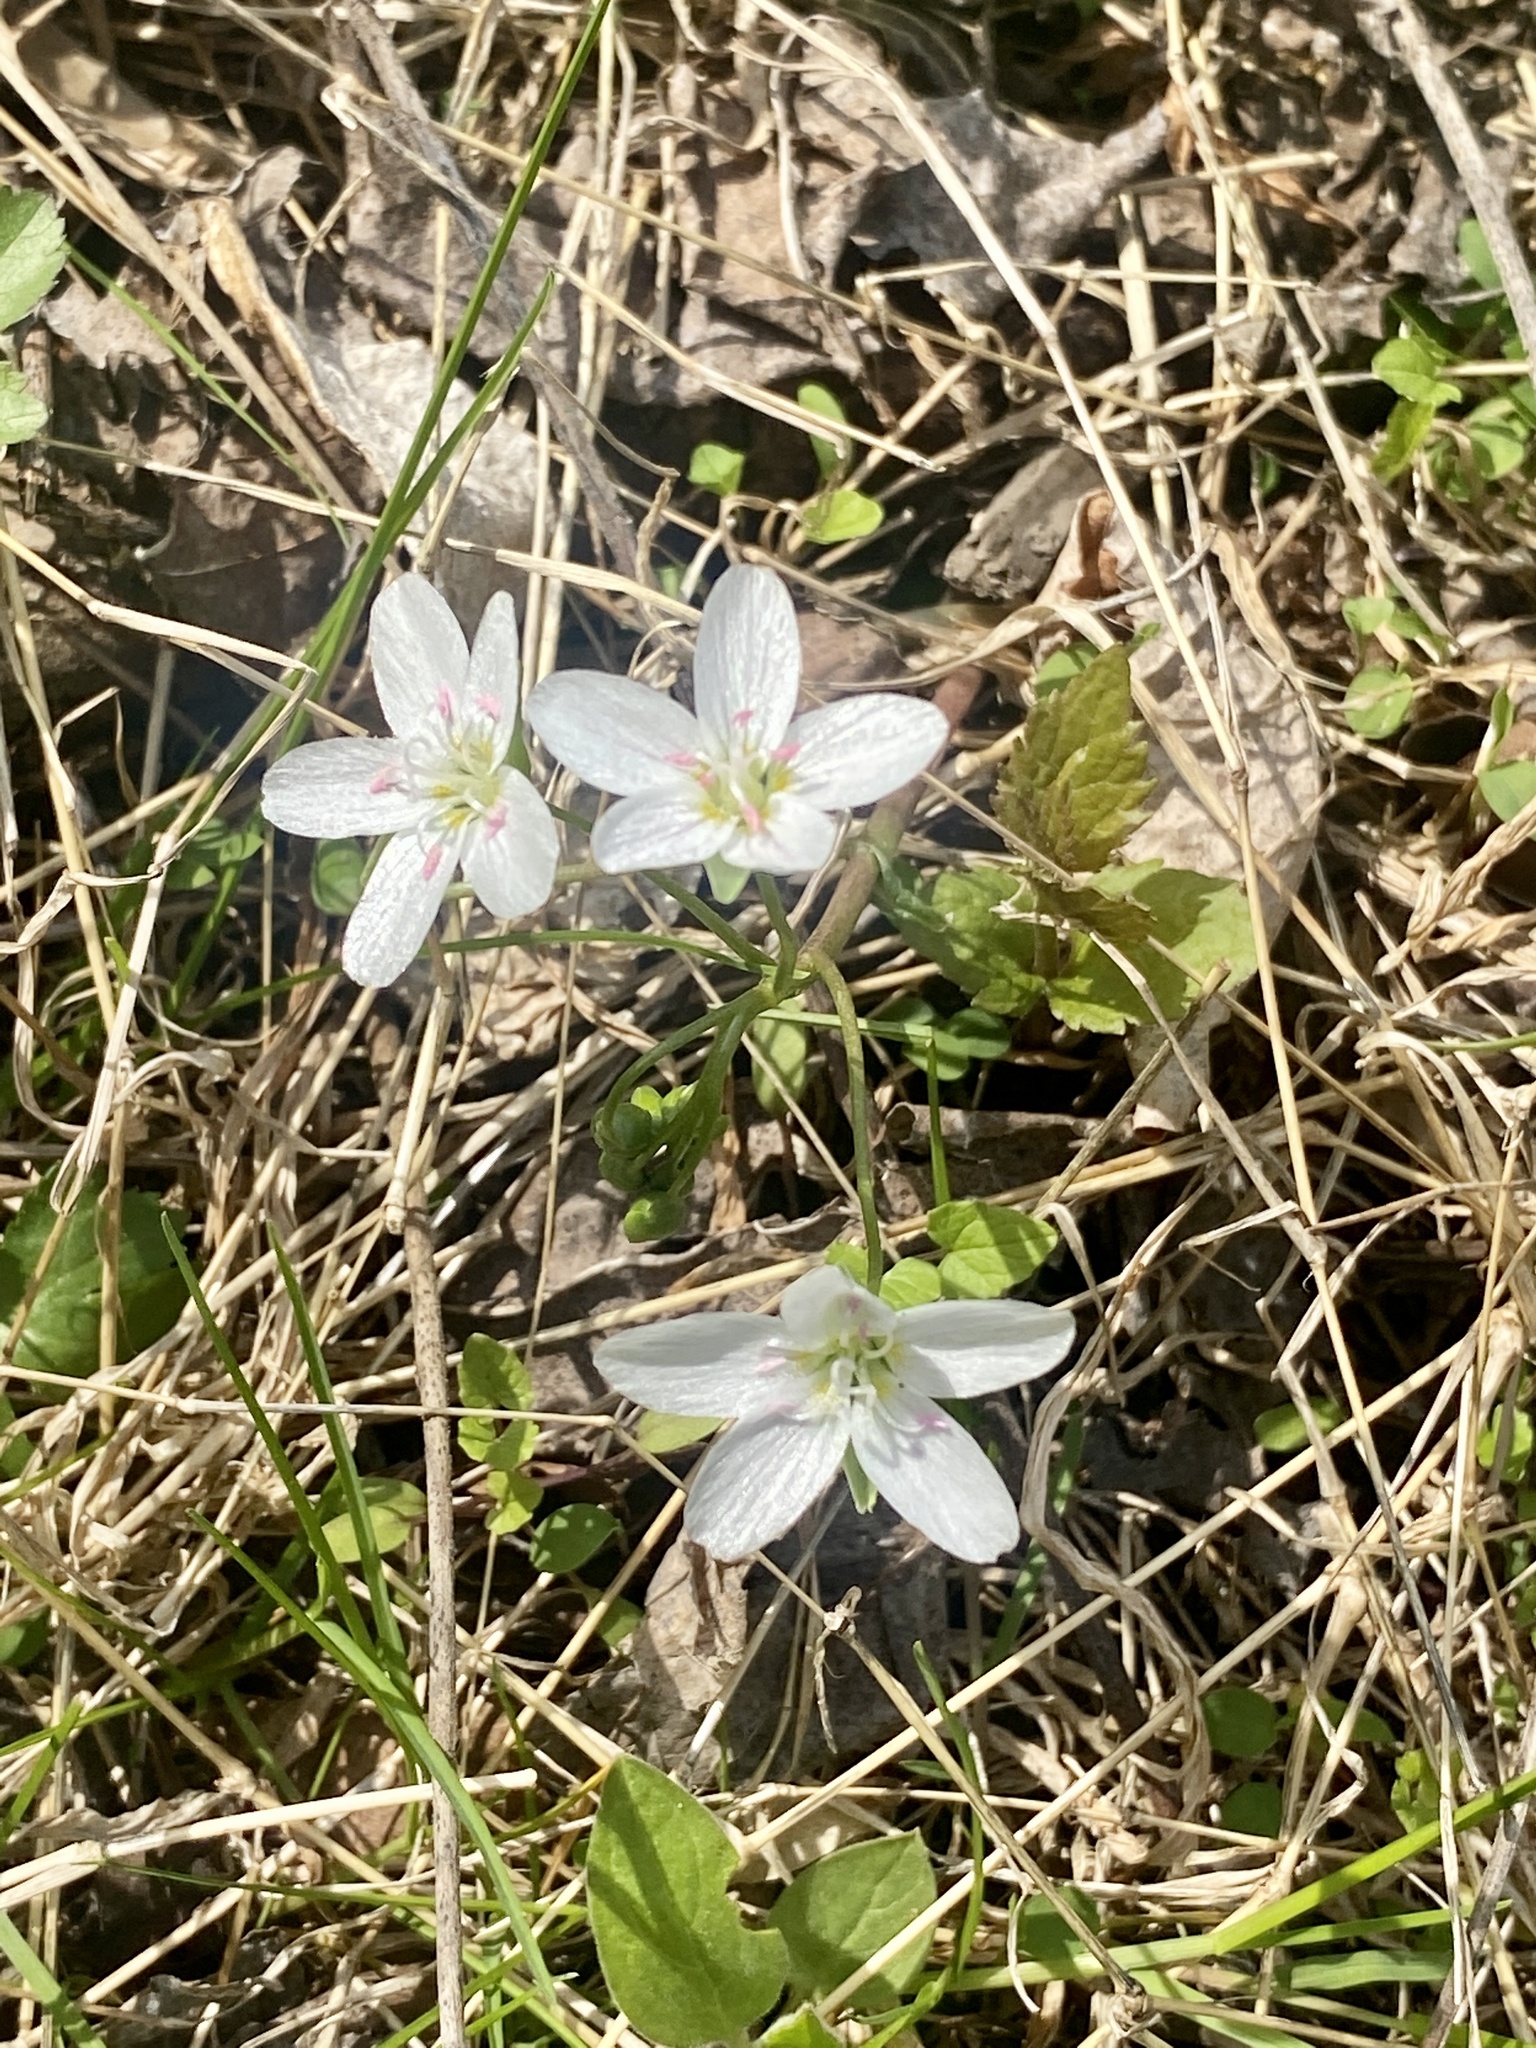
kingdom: Plantae
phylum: Tracheophyta
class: Magnoliopsida
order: Caryophyllales
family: Montiaceae
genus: Claytonia
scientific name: Claytonia virginica
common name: Virginia springbeauty
